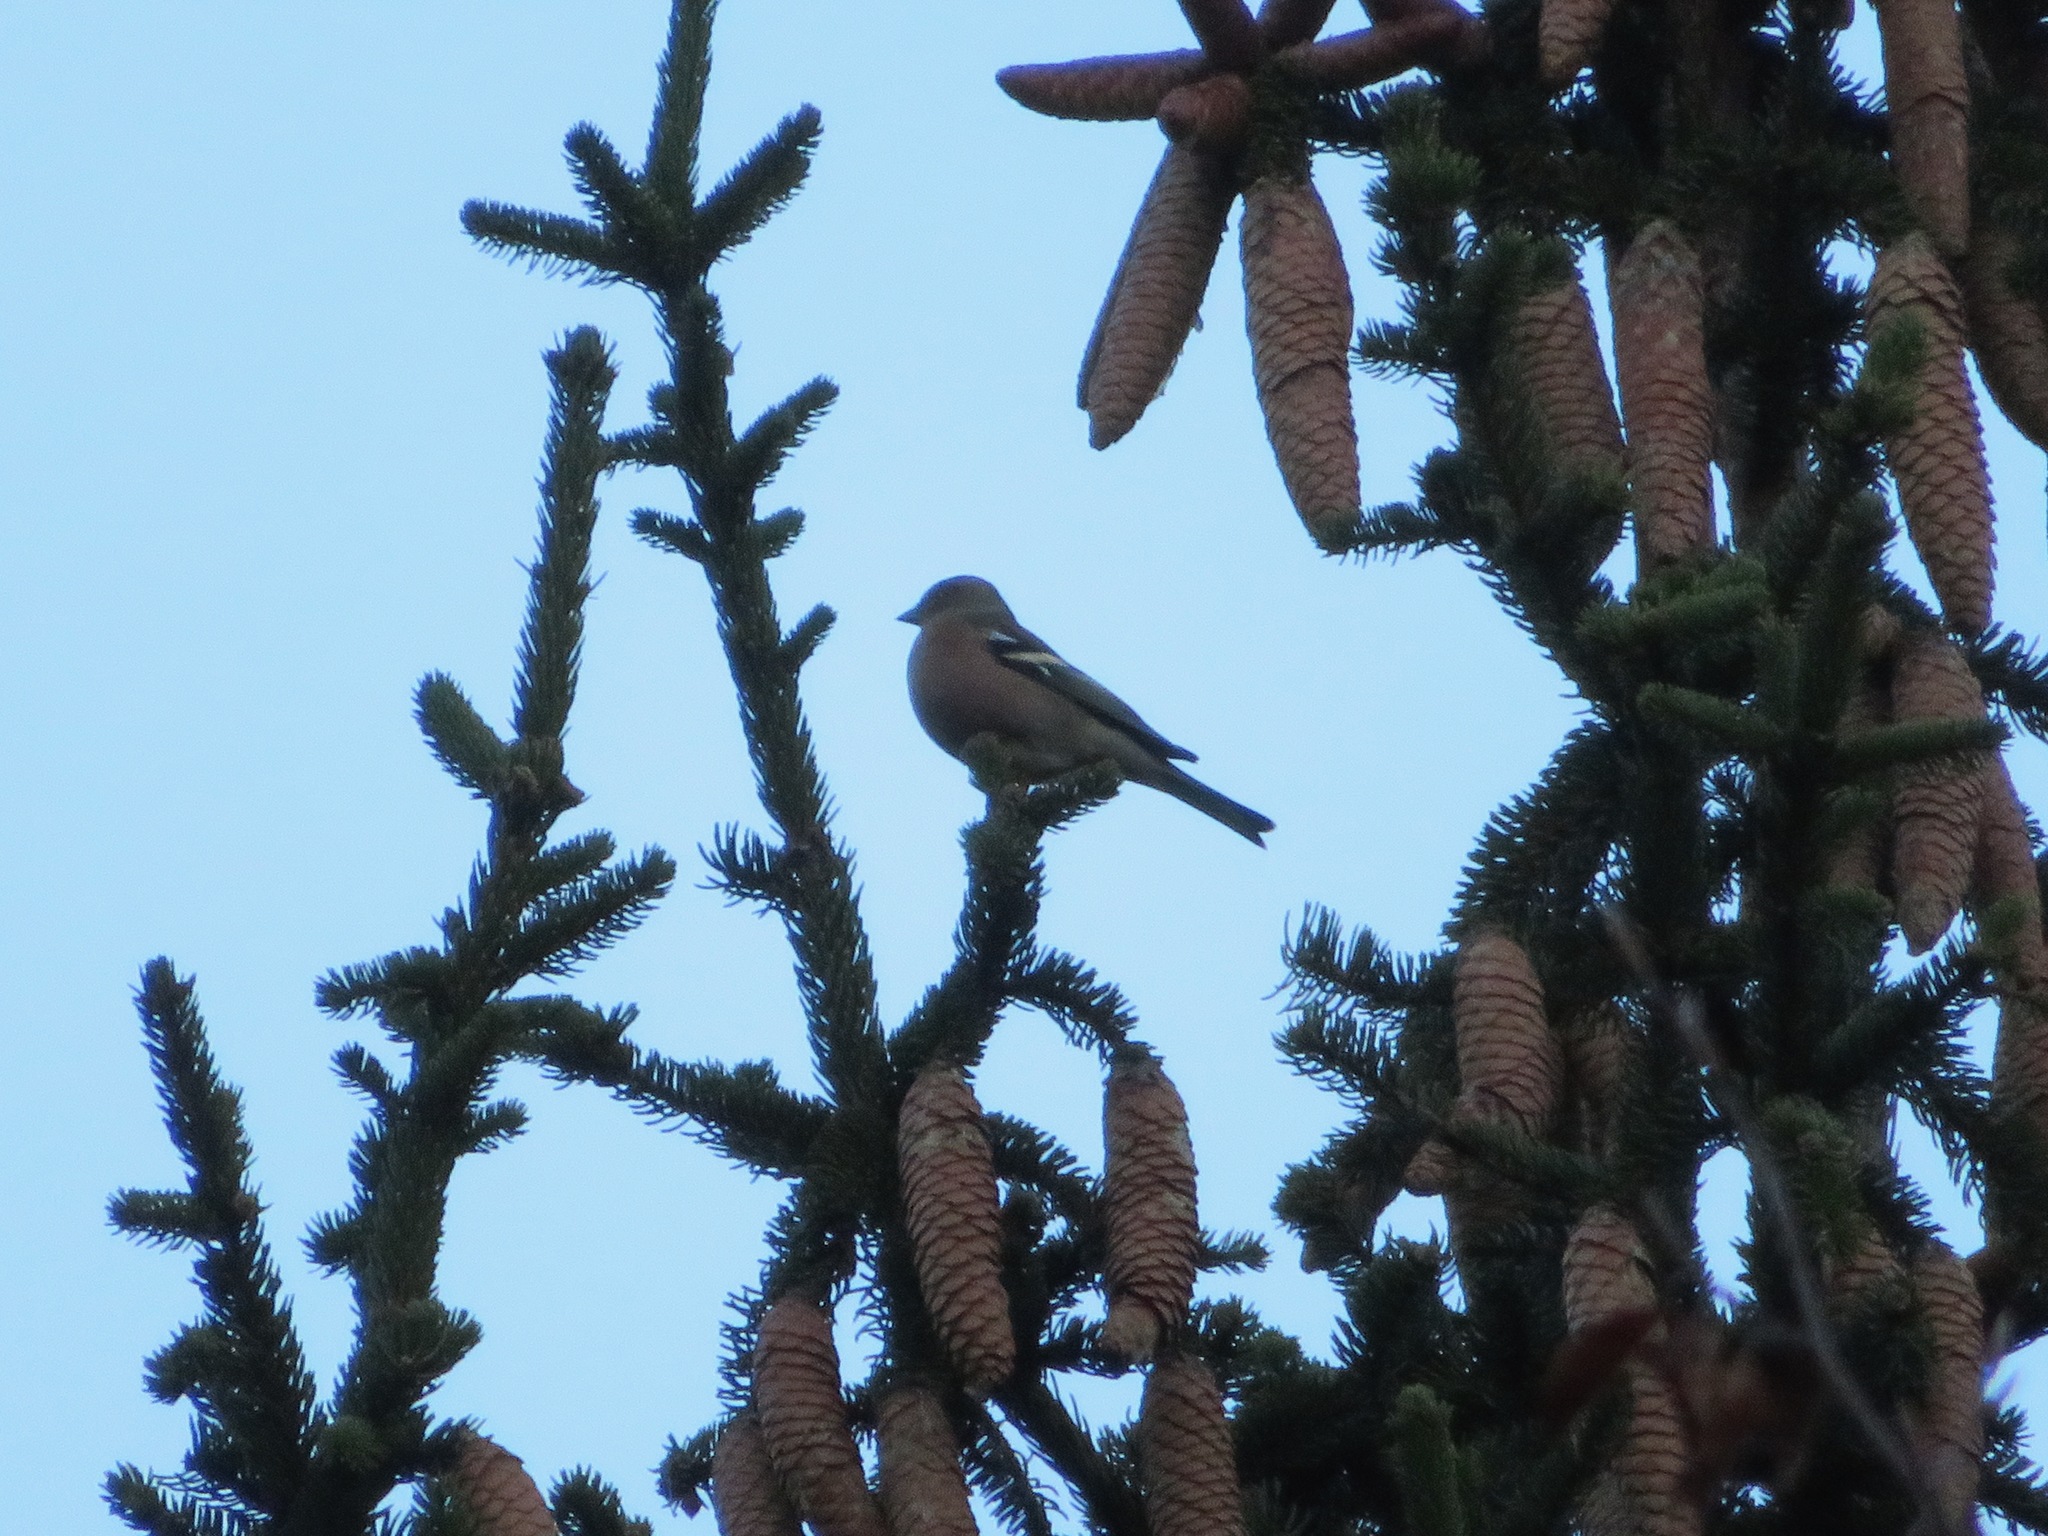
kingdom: Animalia
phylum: Chordata
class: Aves
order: Passeriformes
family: Fringillidae
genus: Fringilla
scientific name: Fringilla coelebs
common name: Common chaffinch
